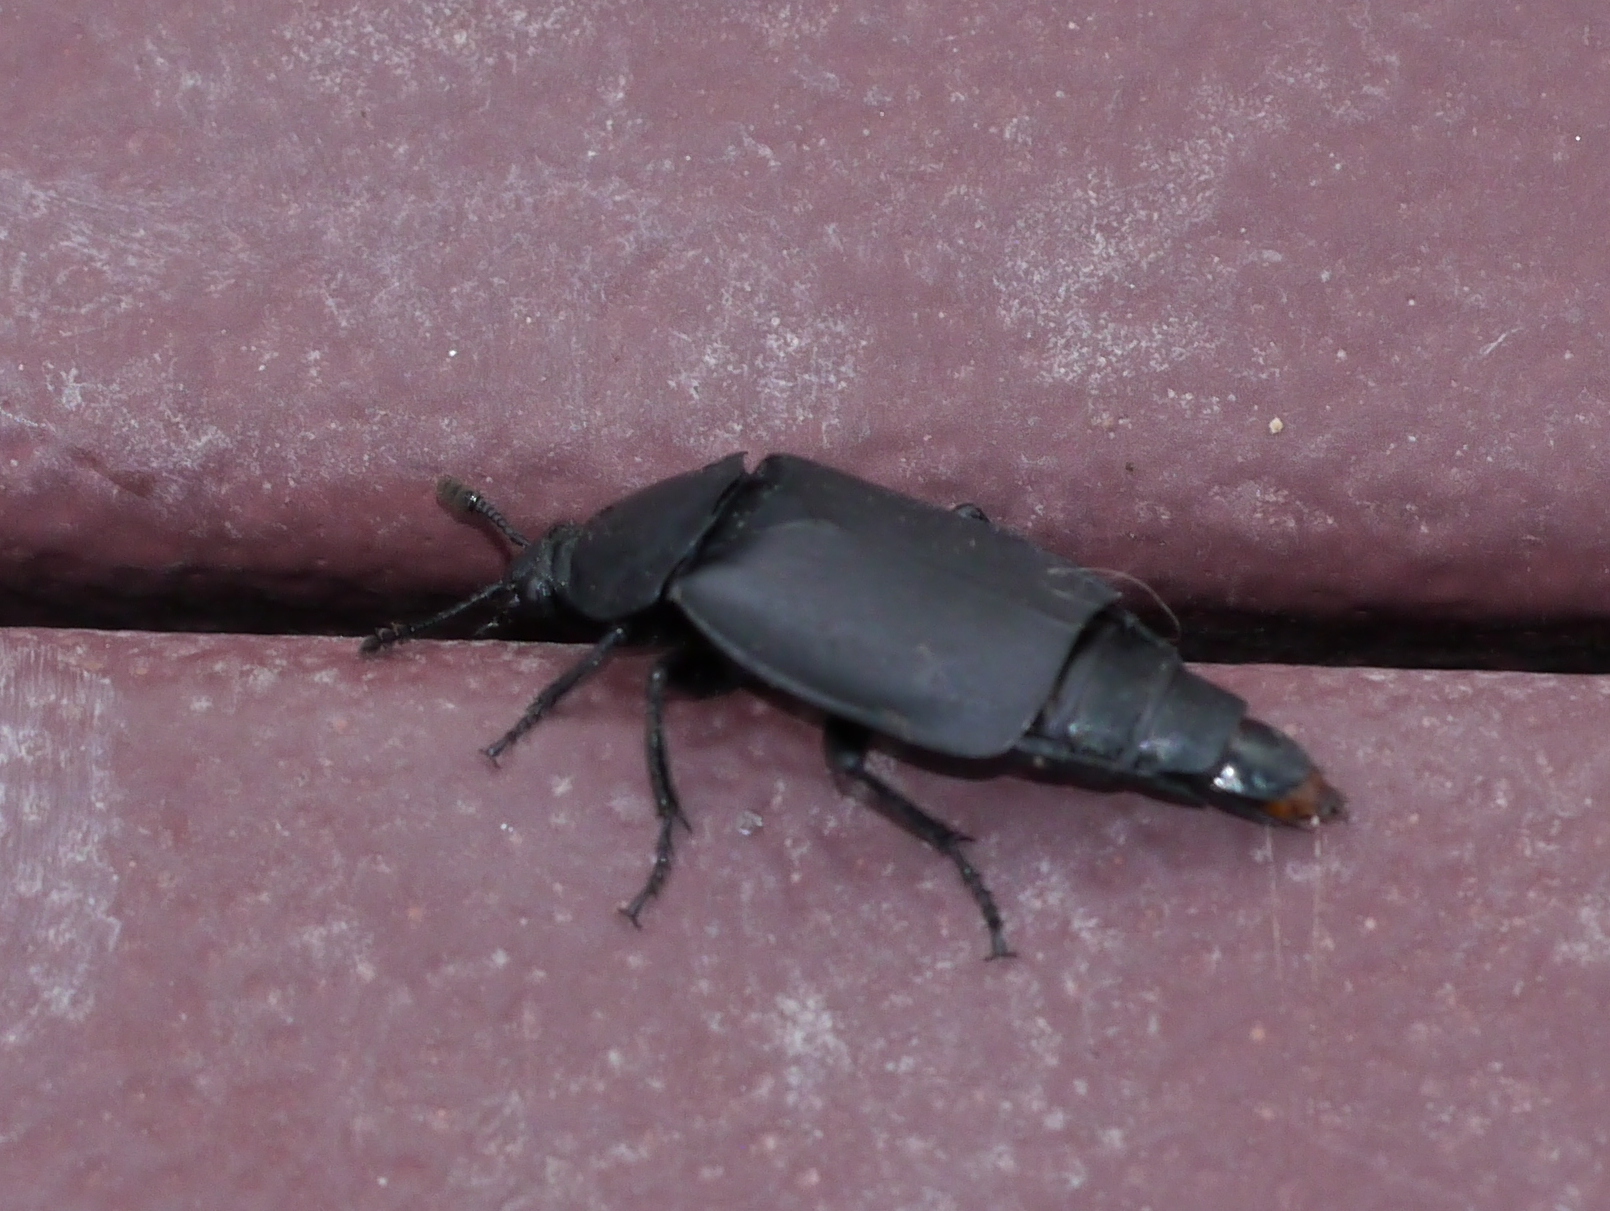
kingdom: Animalia
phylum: Arthropoda
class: Insecta
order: Coleoptera
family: Staphylinidae
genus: Thanatophilus
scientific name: Thanatophilus truncatus
